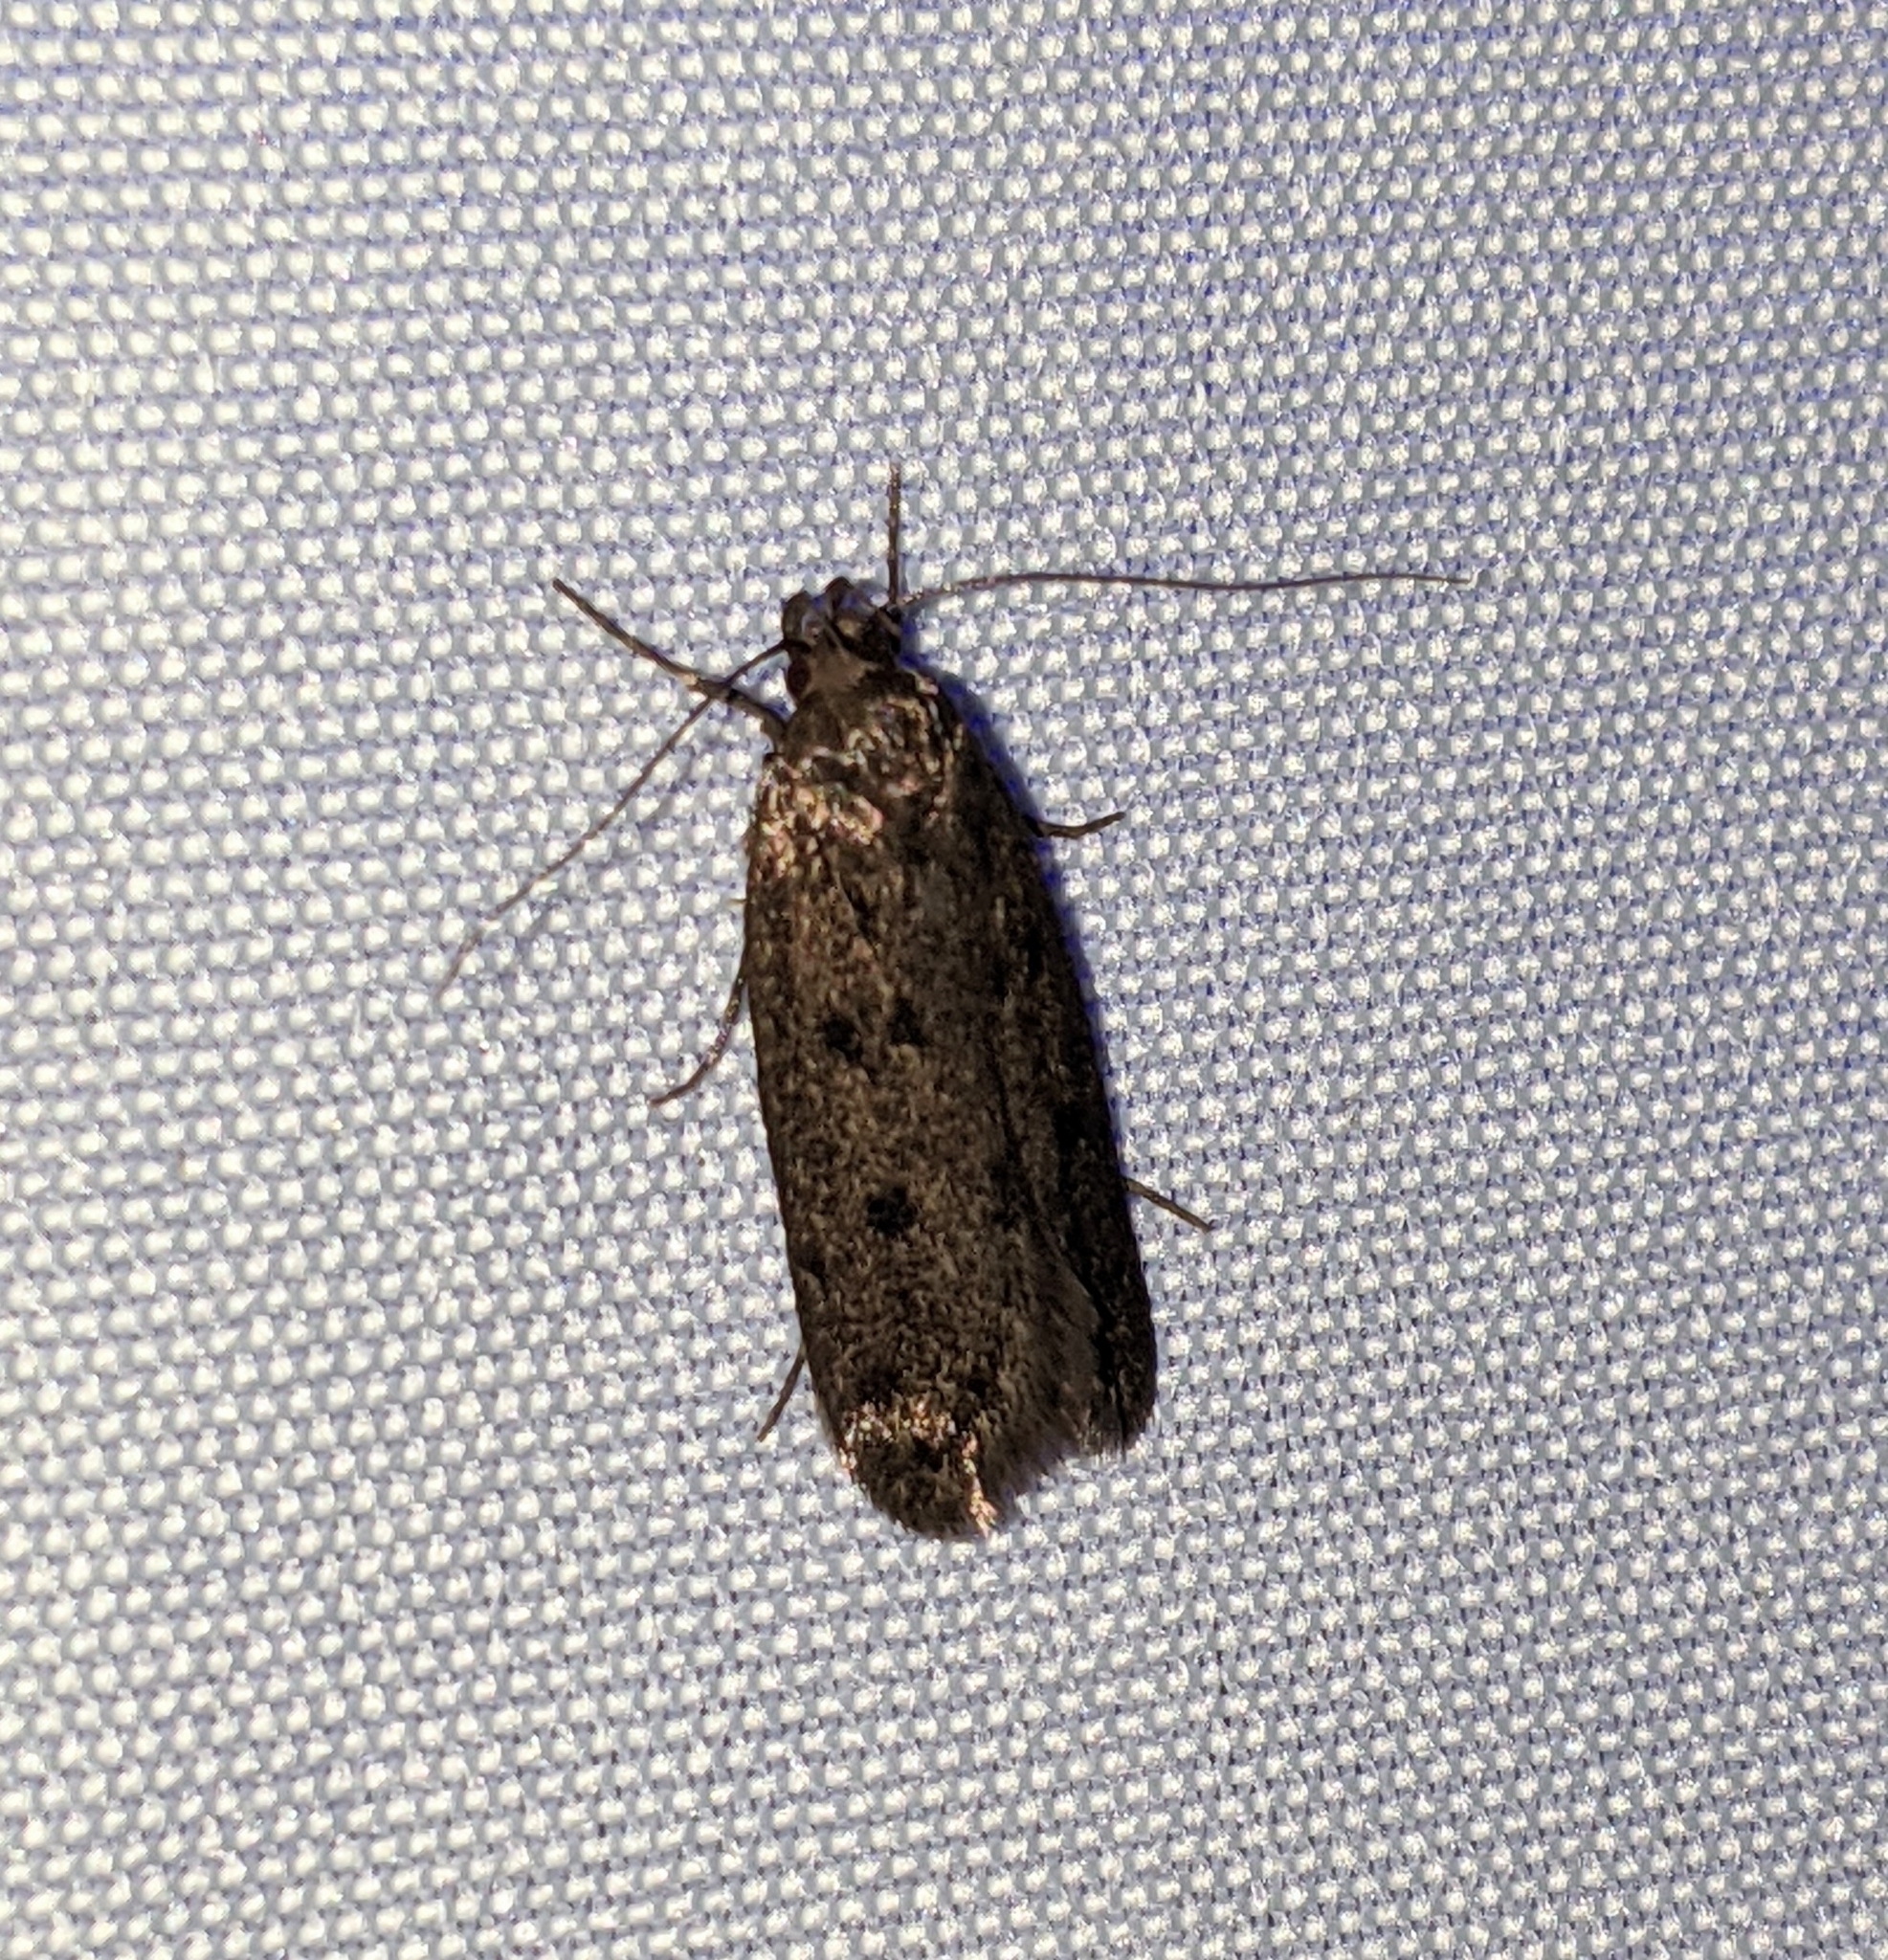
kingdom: Animalia
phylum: Arthropoda
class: Insecta
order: Lepidoptera
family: Oecophoridae
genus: Hofmannophila
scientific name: Hofmannophila pseudospretella
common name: Brown house moth
